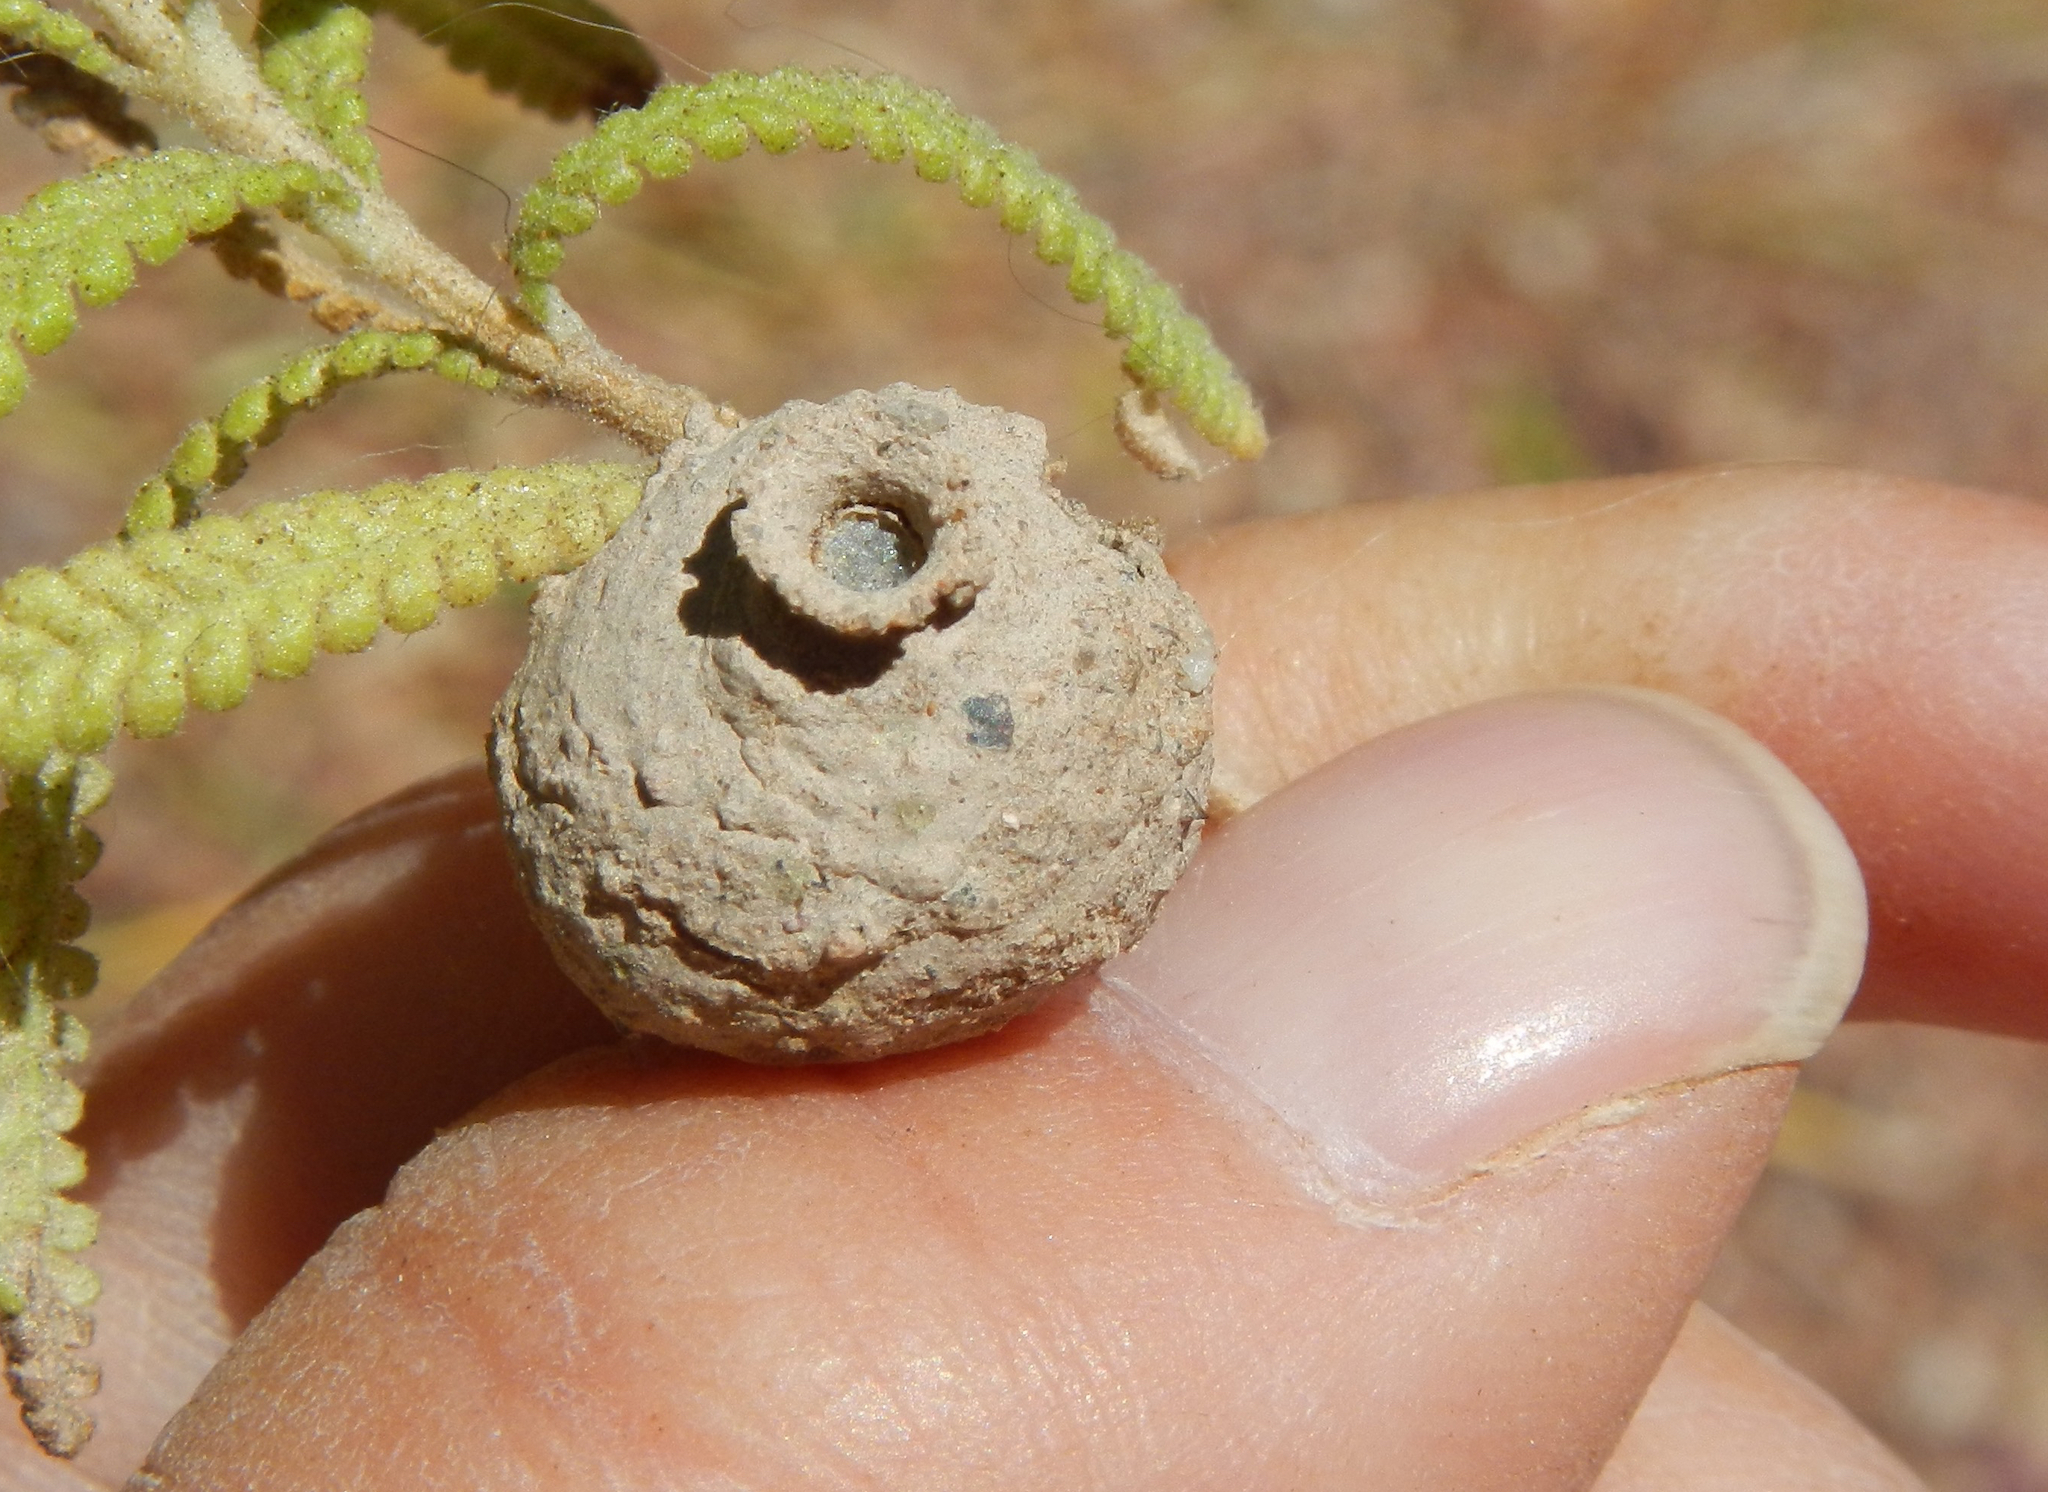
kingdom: Animalia
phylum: Arthropoda
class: Insecta
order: Hymenoptera
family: Vespidae
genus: Eumenes
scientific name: Eumenes
